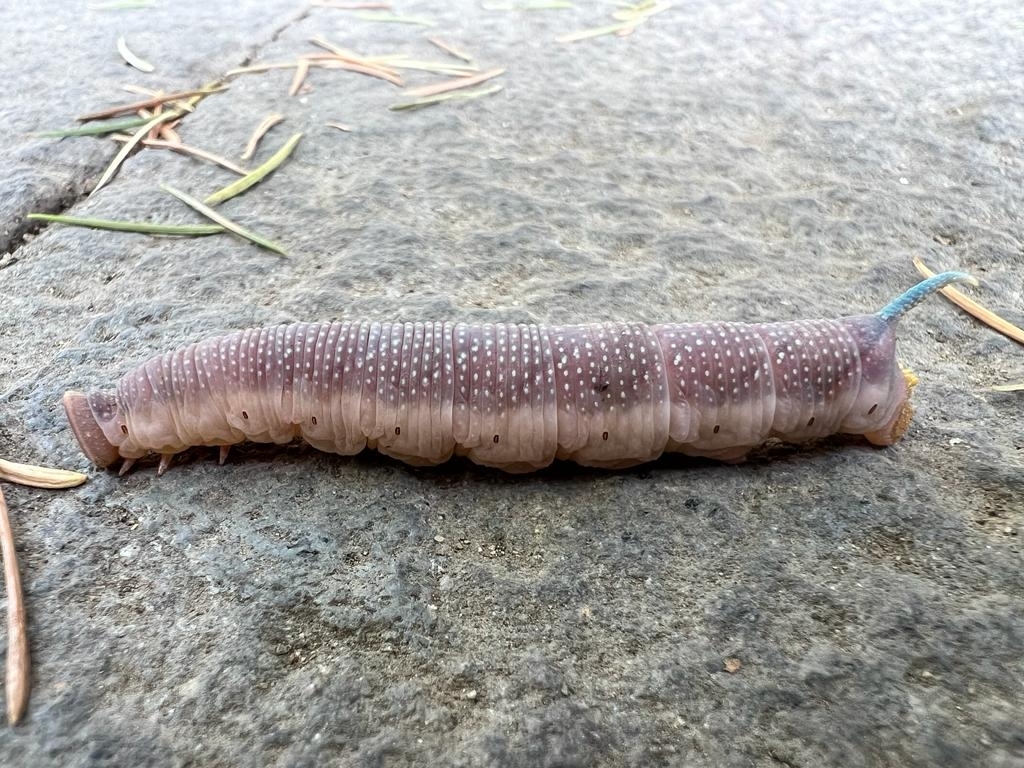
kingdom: Animalia
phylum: Arthropoda
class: Insecta
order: Lepidoptera
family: Sphingidae
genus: Mimas
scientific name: Mimas tiliae
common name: Lime hawk-moth
